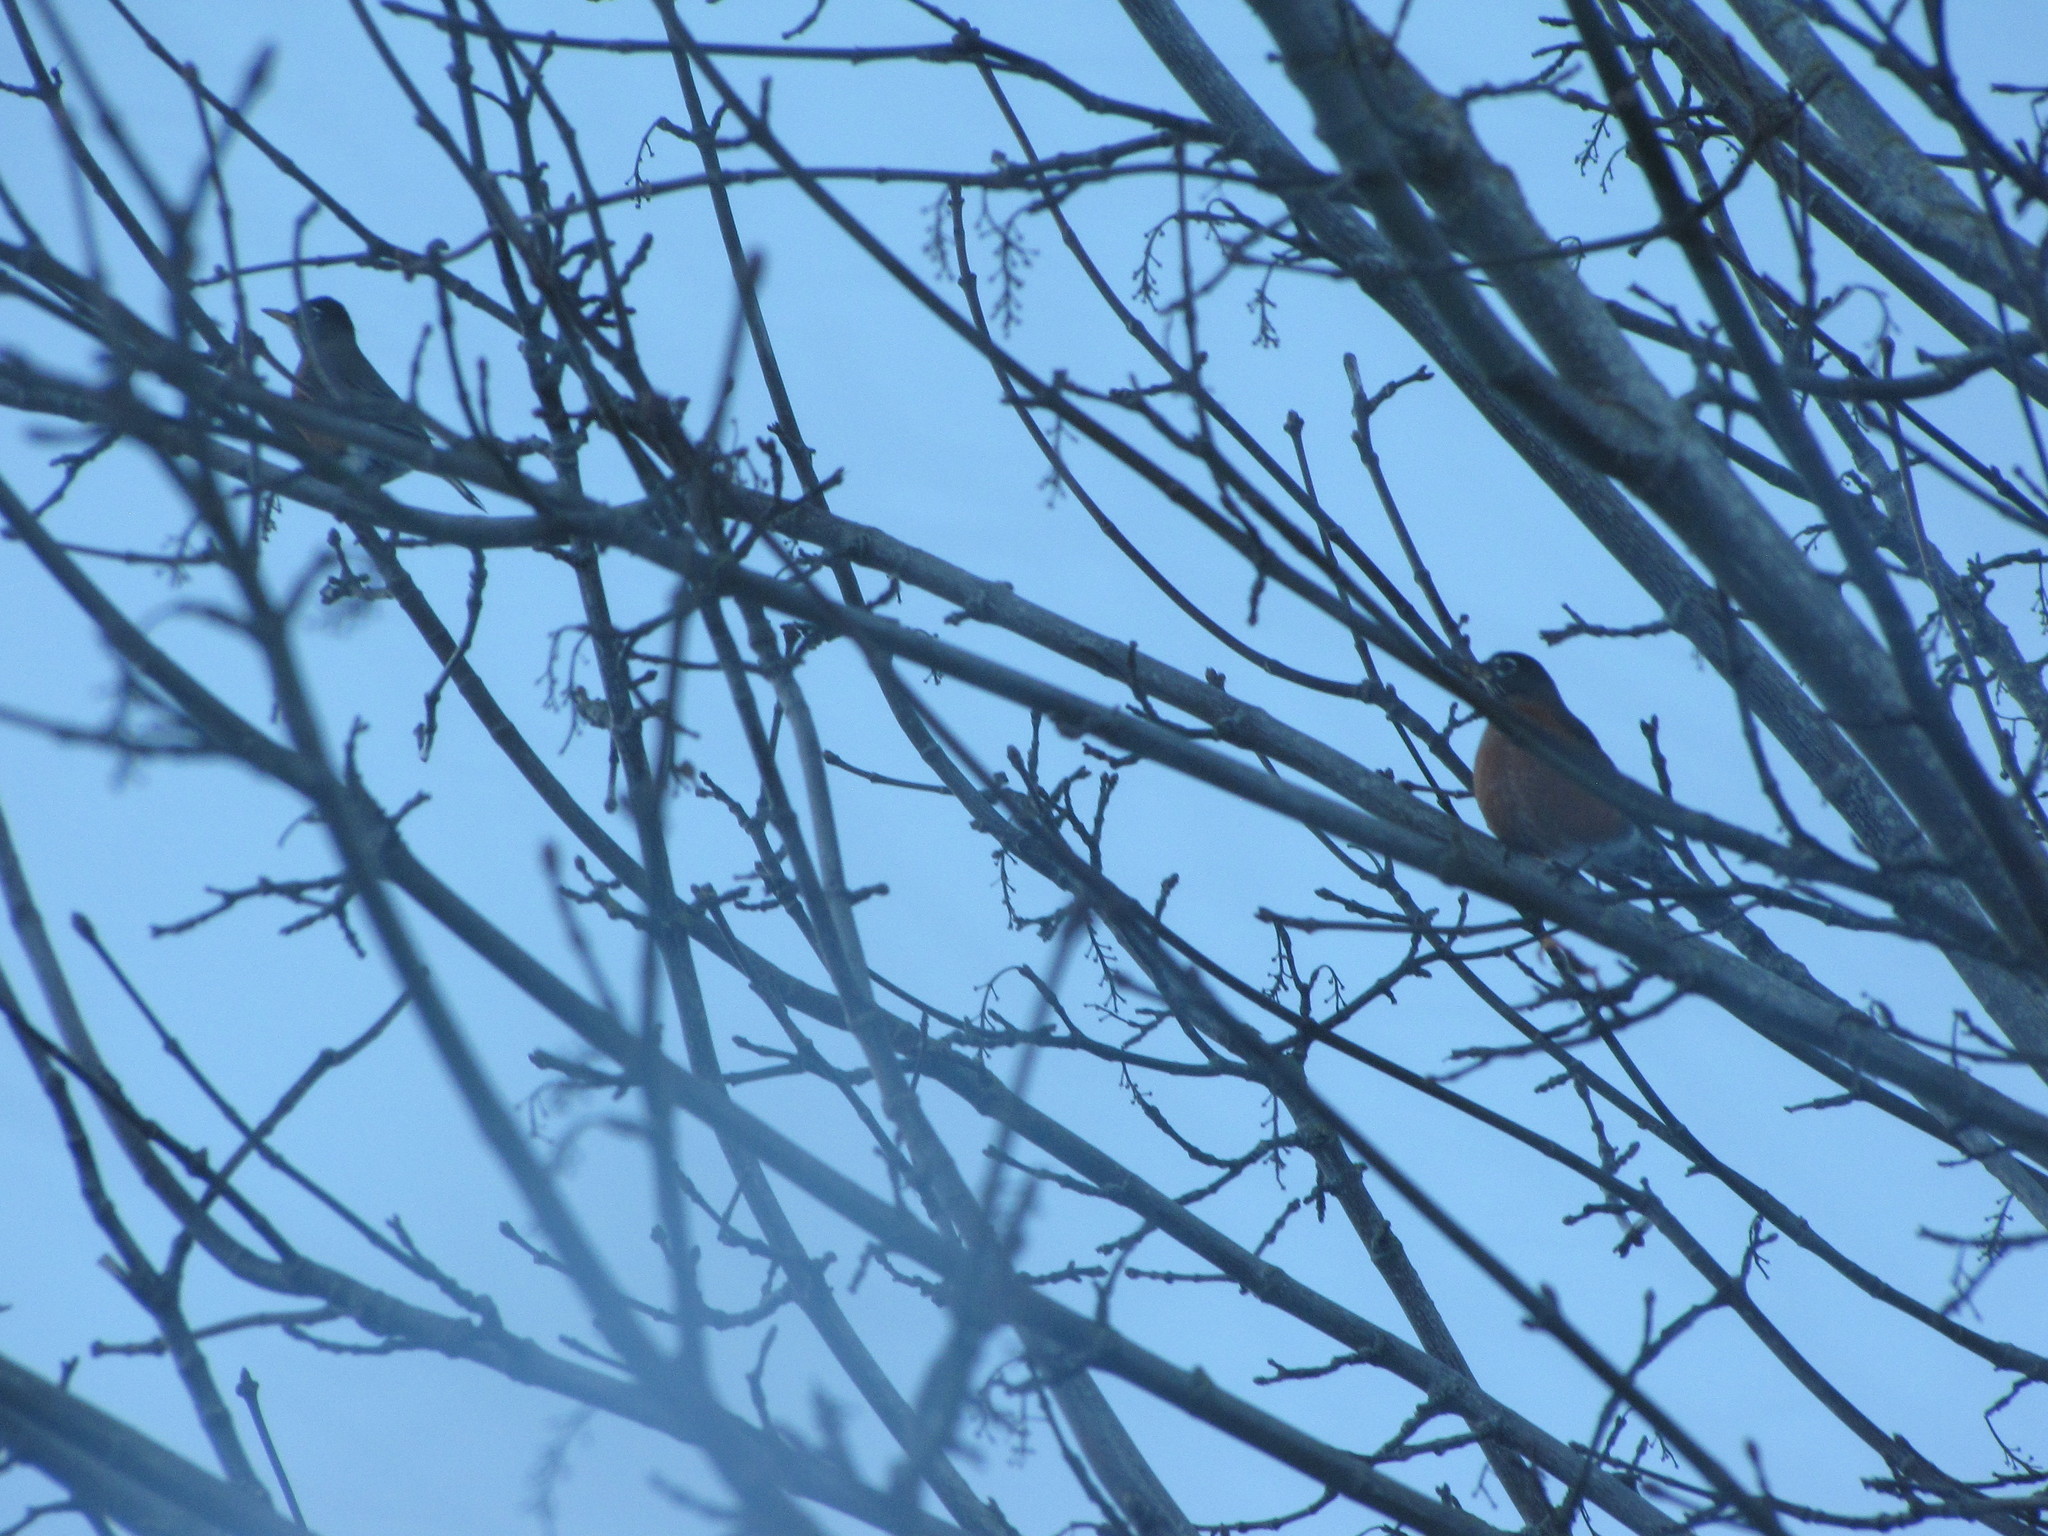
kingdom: Animalia
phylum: Chordata
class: Aves
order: Passeriformes
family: Turdidae
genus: Turdus
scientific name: Turdus migratorius
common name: American robin
